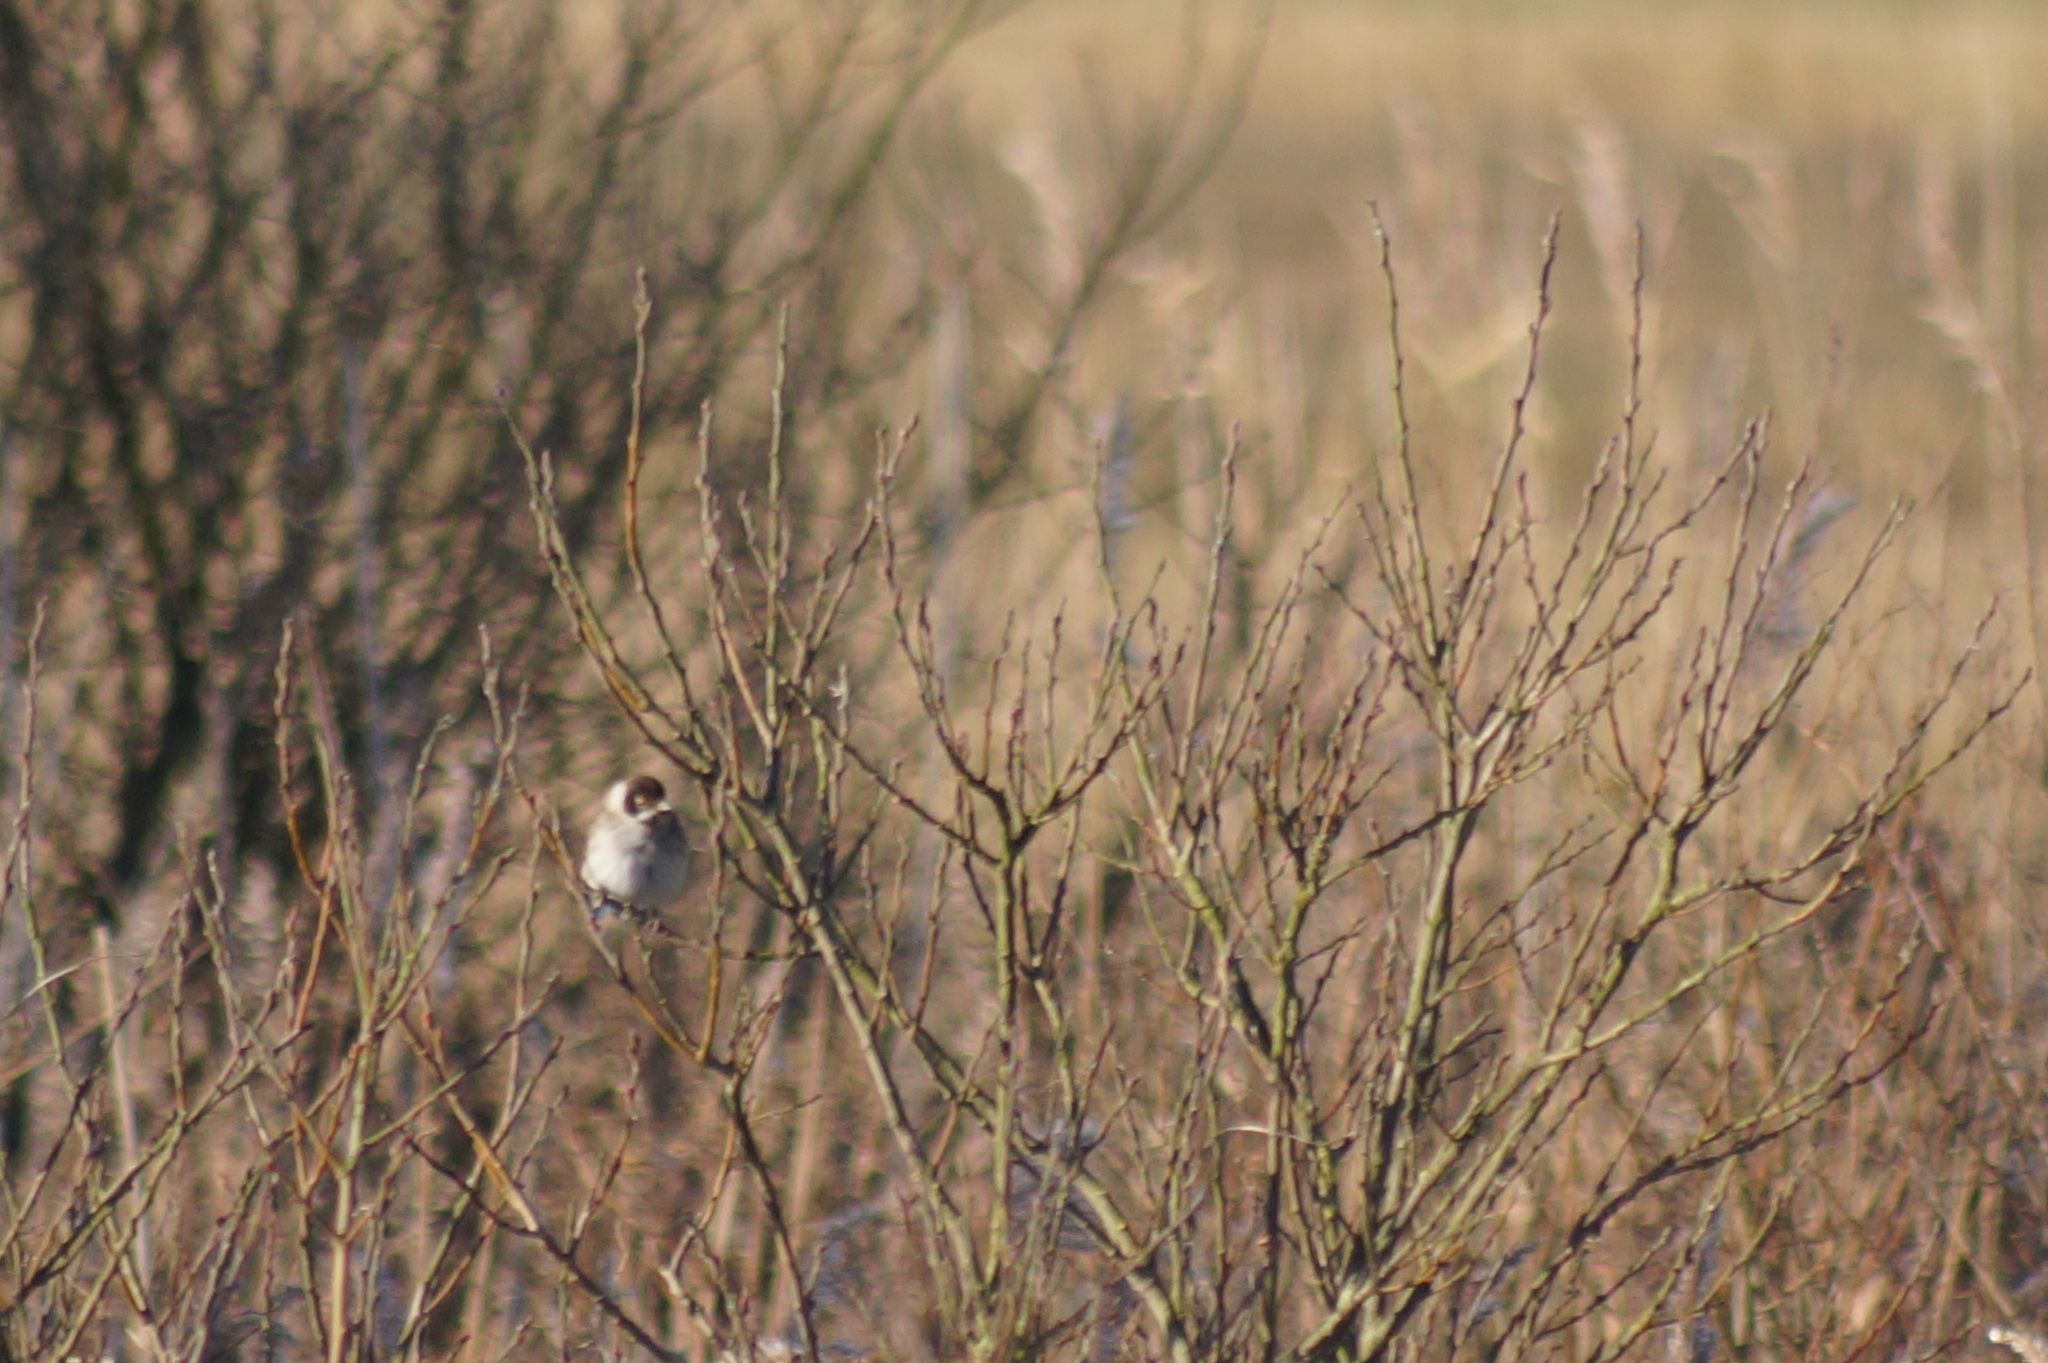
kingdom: Animalia
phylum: Chordata
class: Aves
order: Passeriformes
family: Emberizidae
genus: Emberiza
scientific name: Emberiza schoeniclus
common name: Reed bunting
